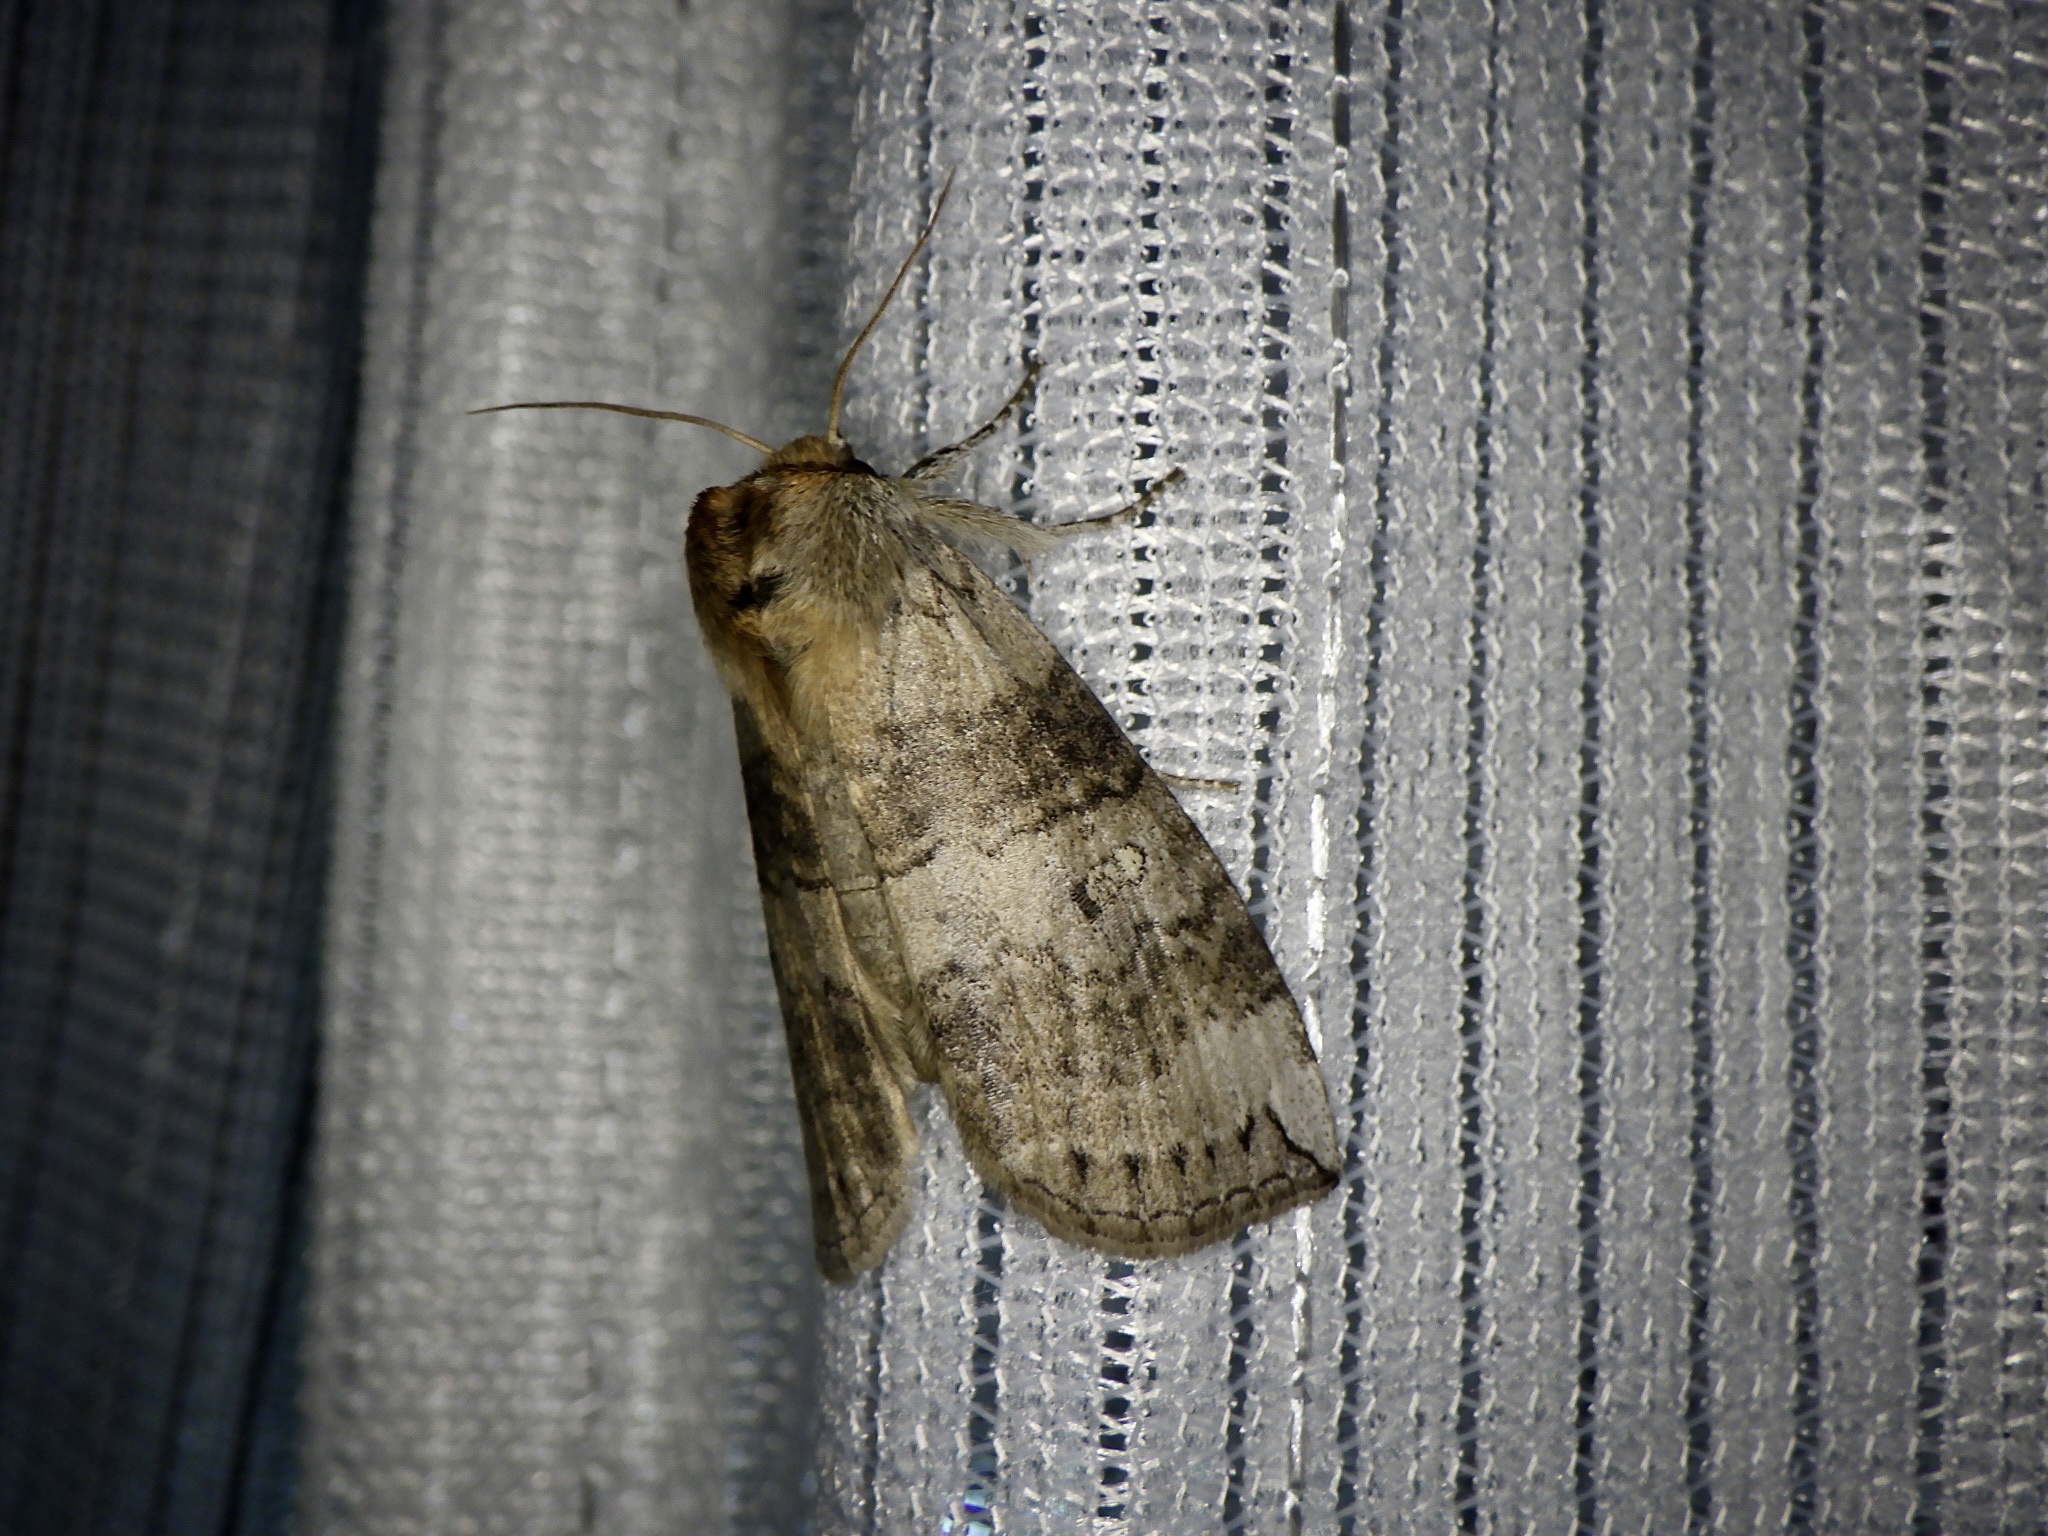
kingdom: Animalia
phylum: Arthropoda
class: Insecta
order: Lepidoptera
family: Drepanidae
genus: Tethea
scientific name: Tethea ampliata
